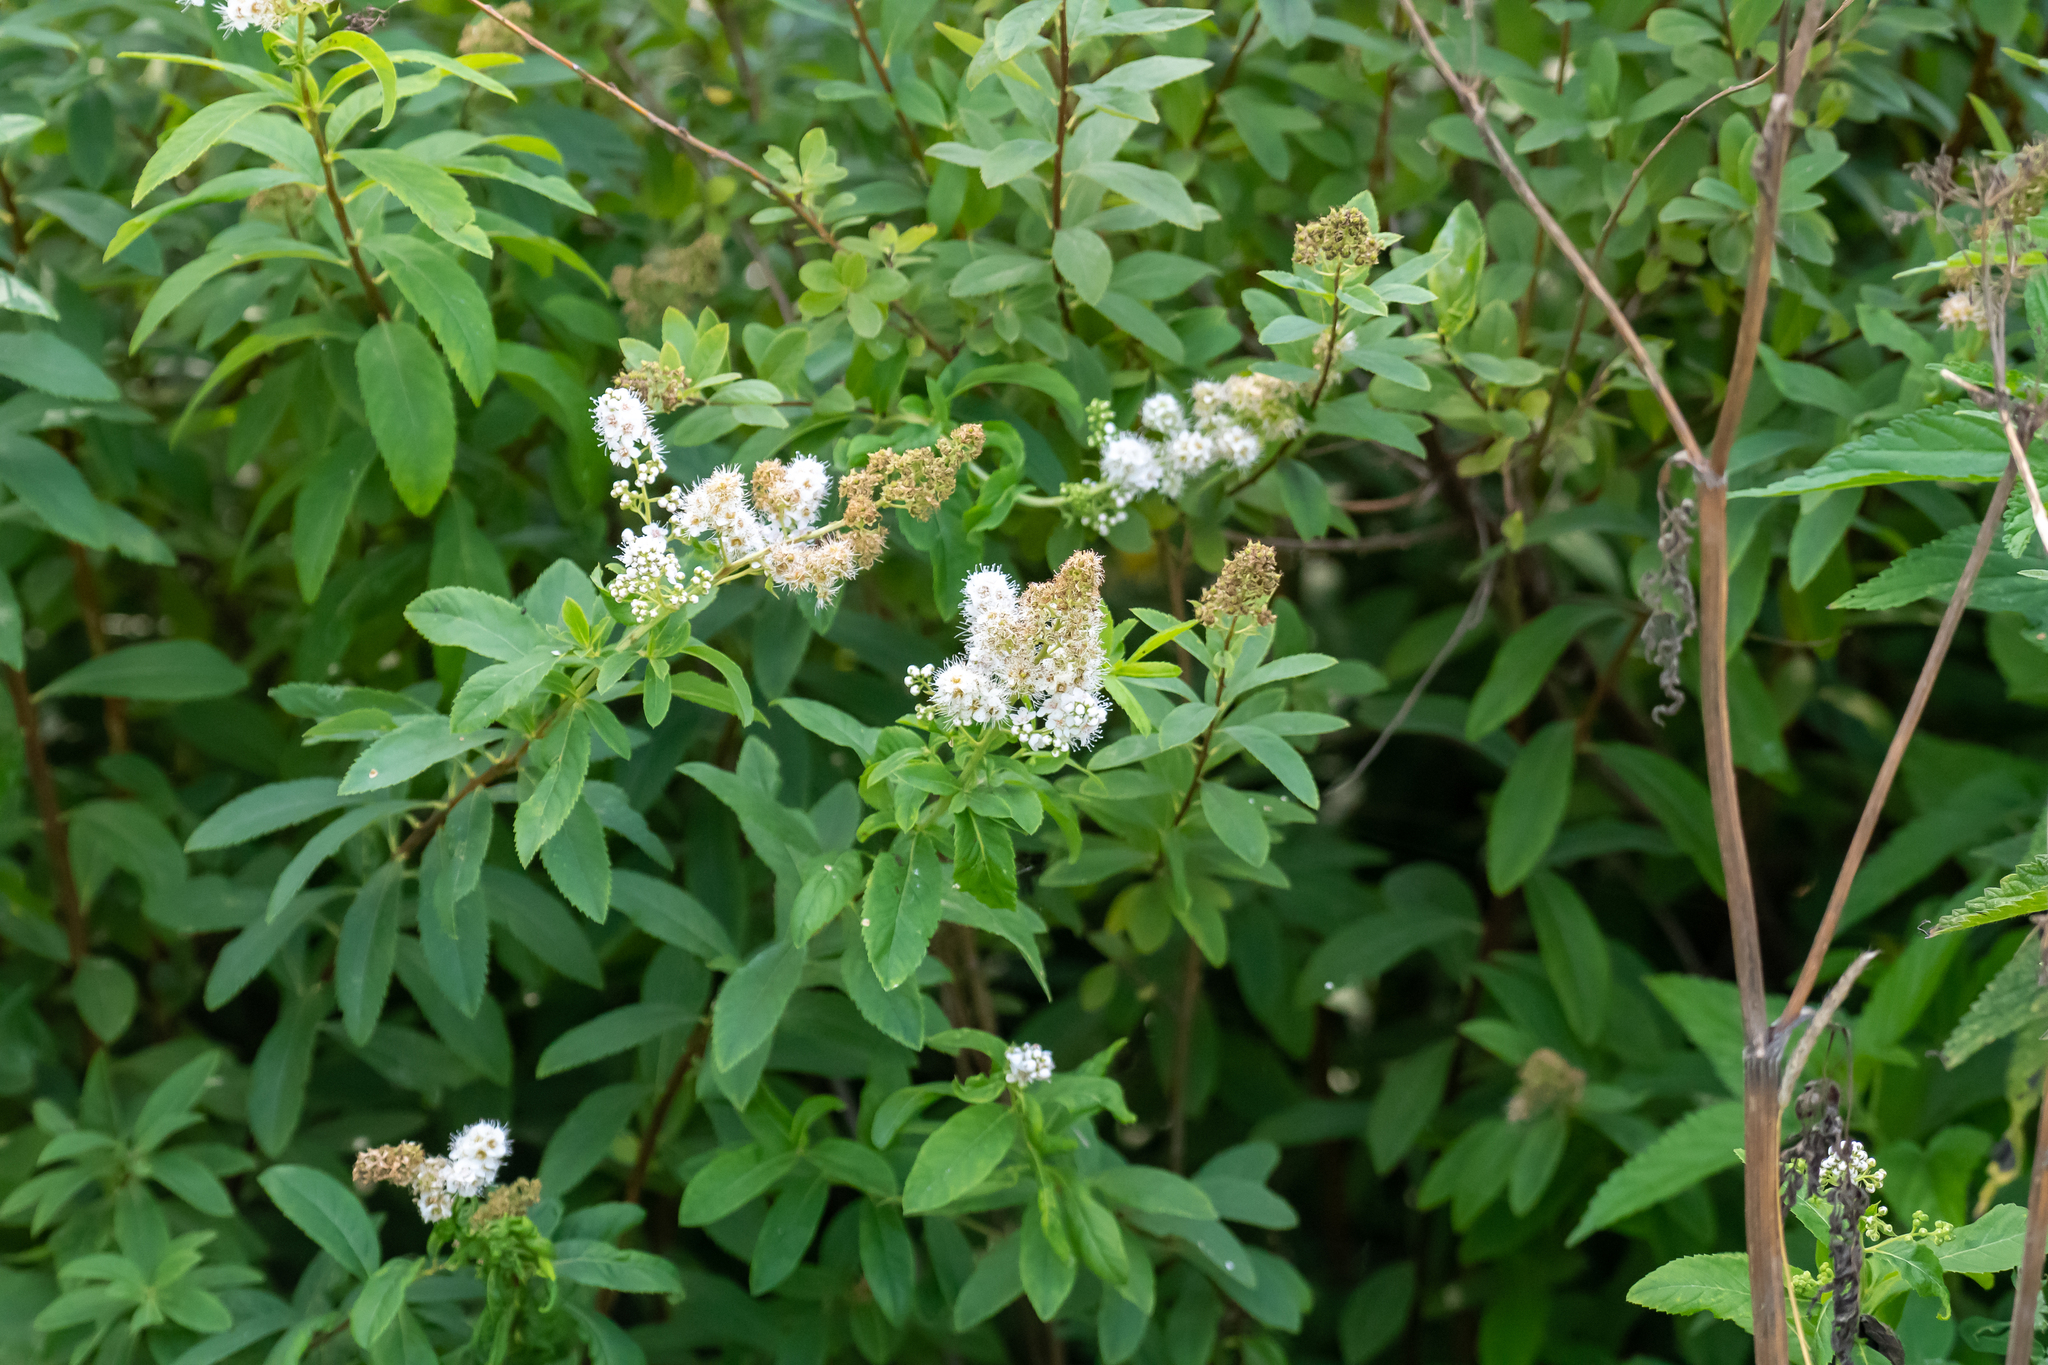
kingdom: Plantae
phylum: Tracheophyta
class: Magnoliopsida
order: Rosales
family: Rosaceae
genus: Spiraea
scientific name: Spiraea alba
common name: Pale bridewort
